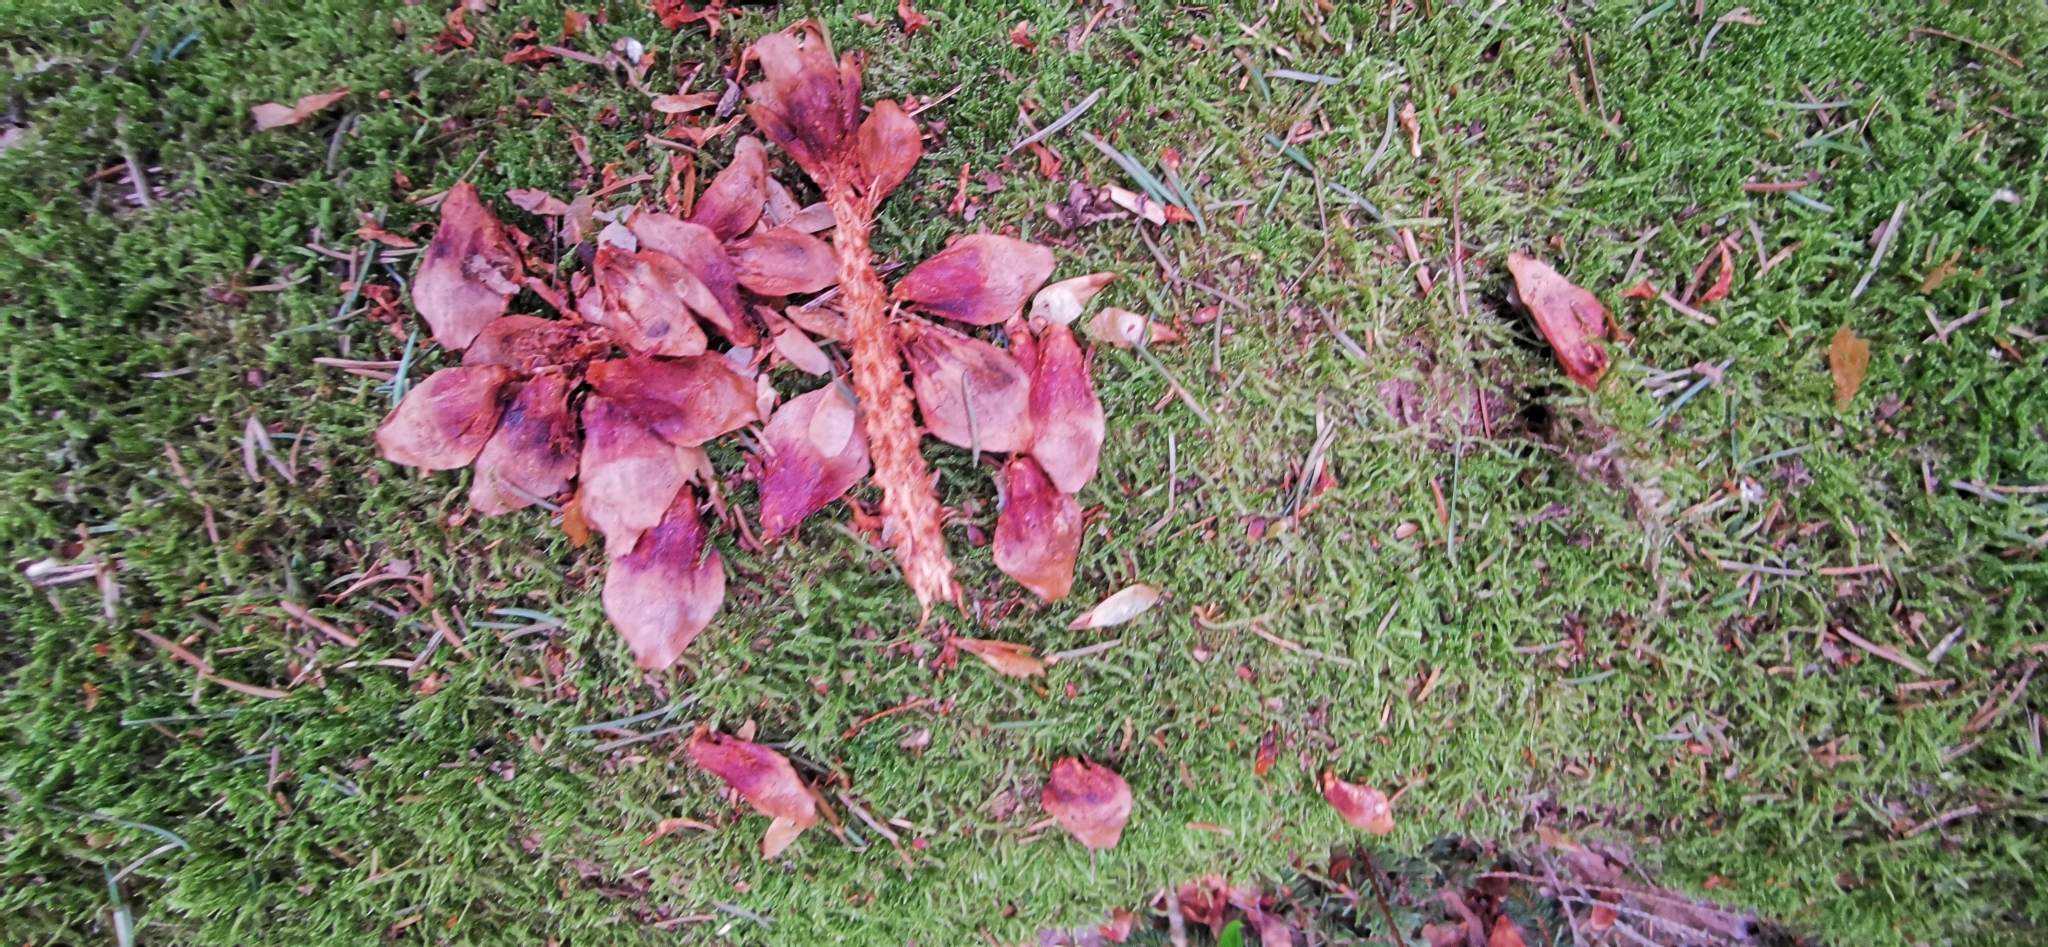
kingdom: Animalia
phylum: Chordata
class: Mammalia
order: Rodentia
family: Sciuridae
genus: Sciurus
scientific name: Sciurus vulgaris
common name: Eurasian red squirrel
